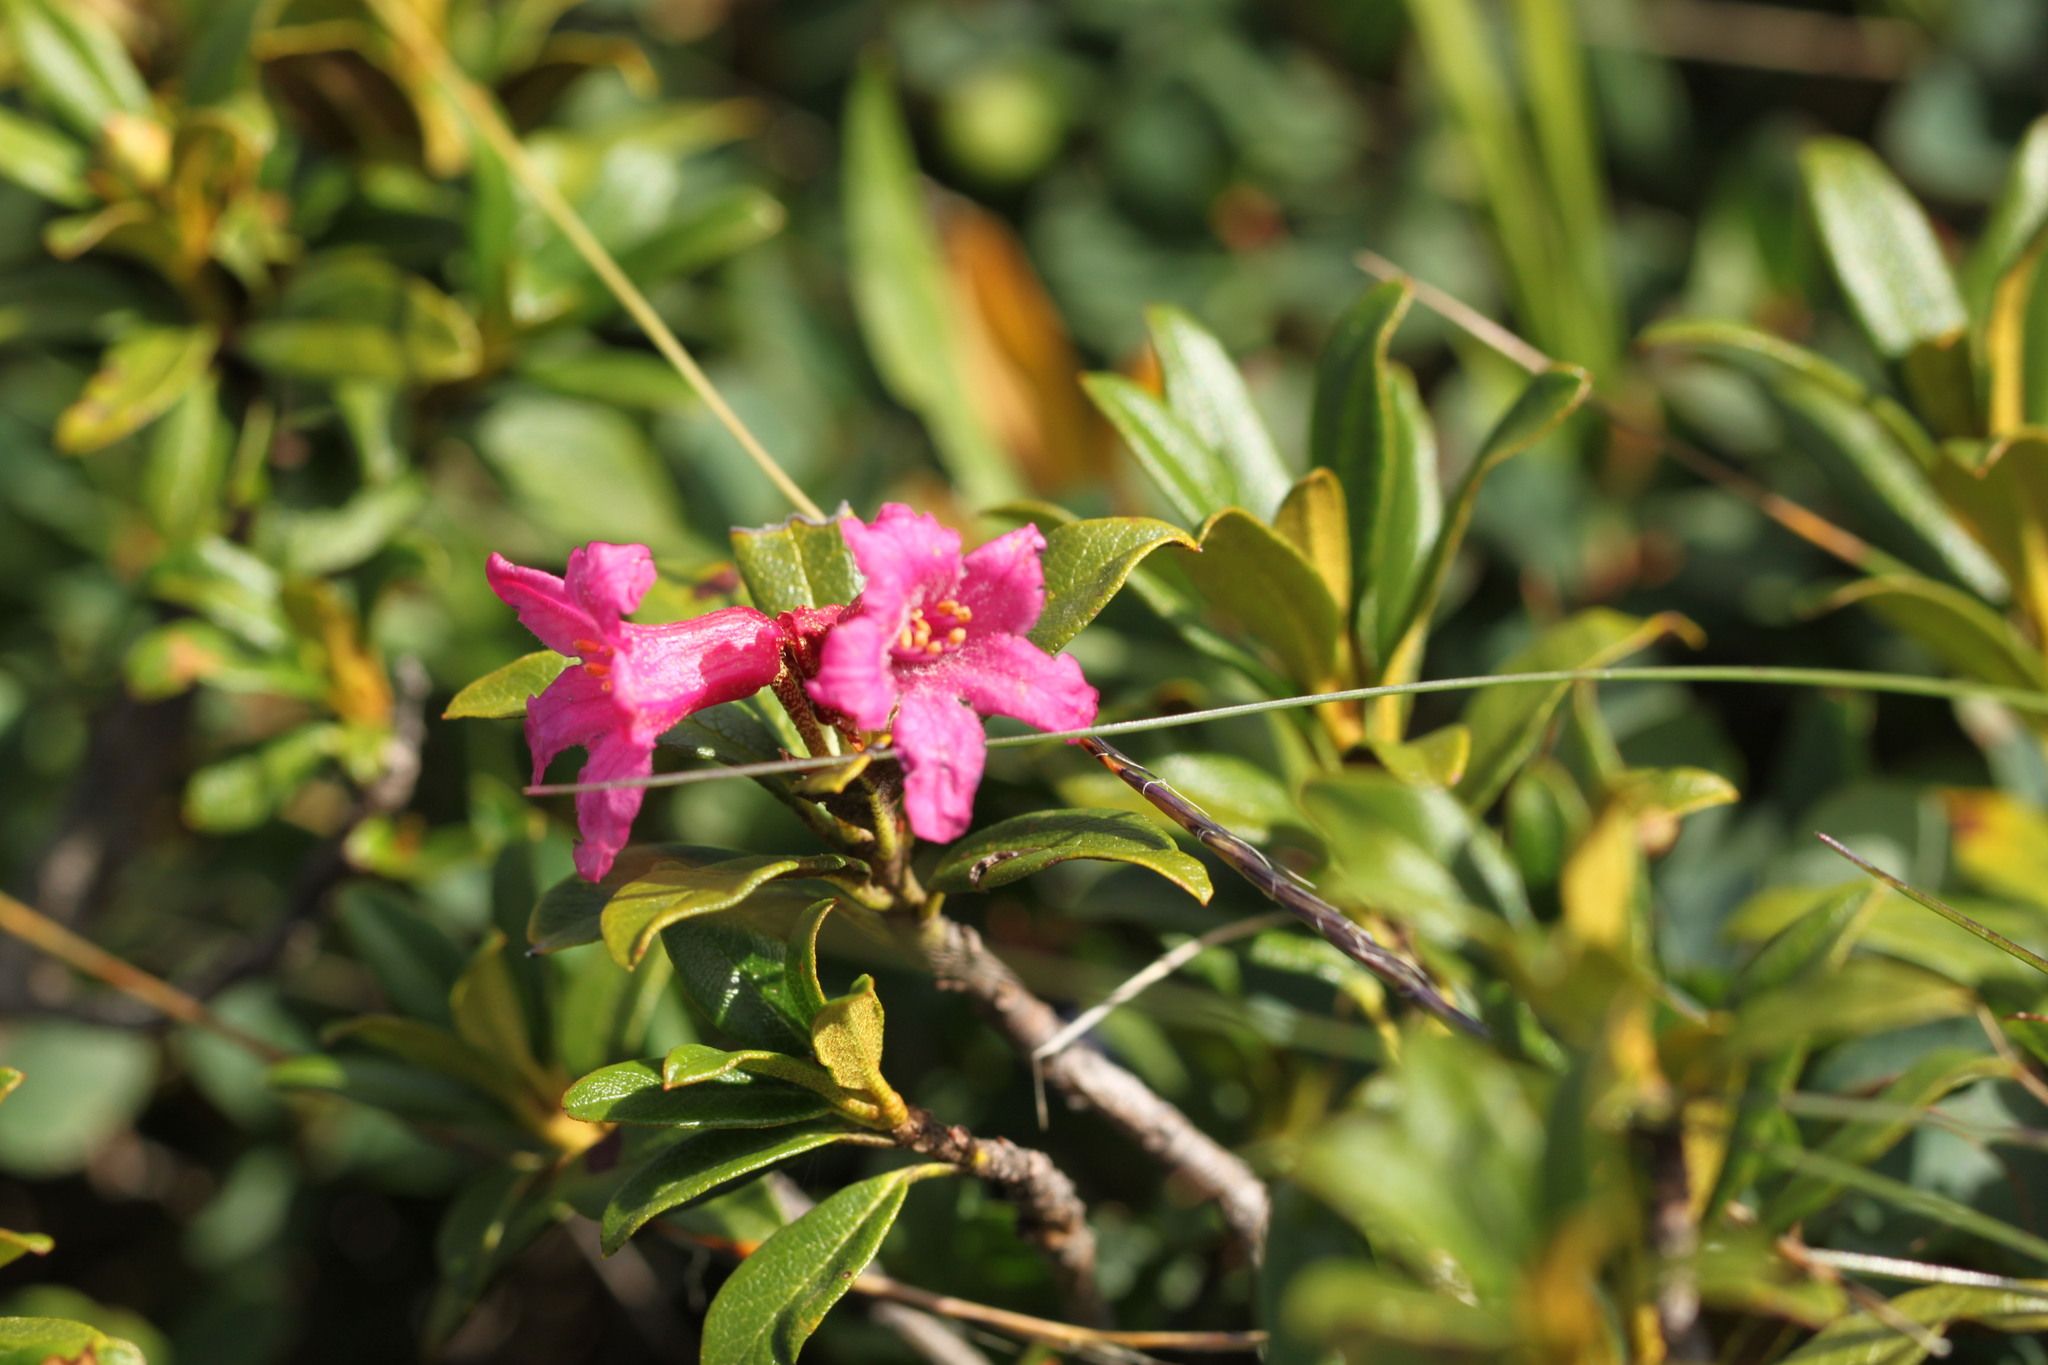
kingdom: Plantae
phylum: Tracheophyta
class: Magnoliopsida
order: Ericales
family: Ericaceae
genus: Rhododendron
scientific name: Rhododendron ferrugineum
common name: Alpenrose
